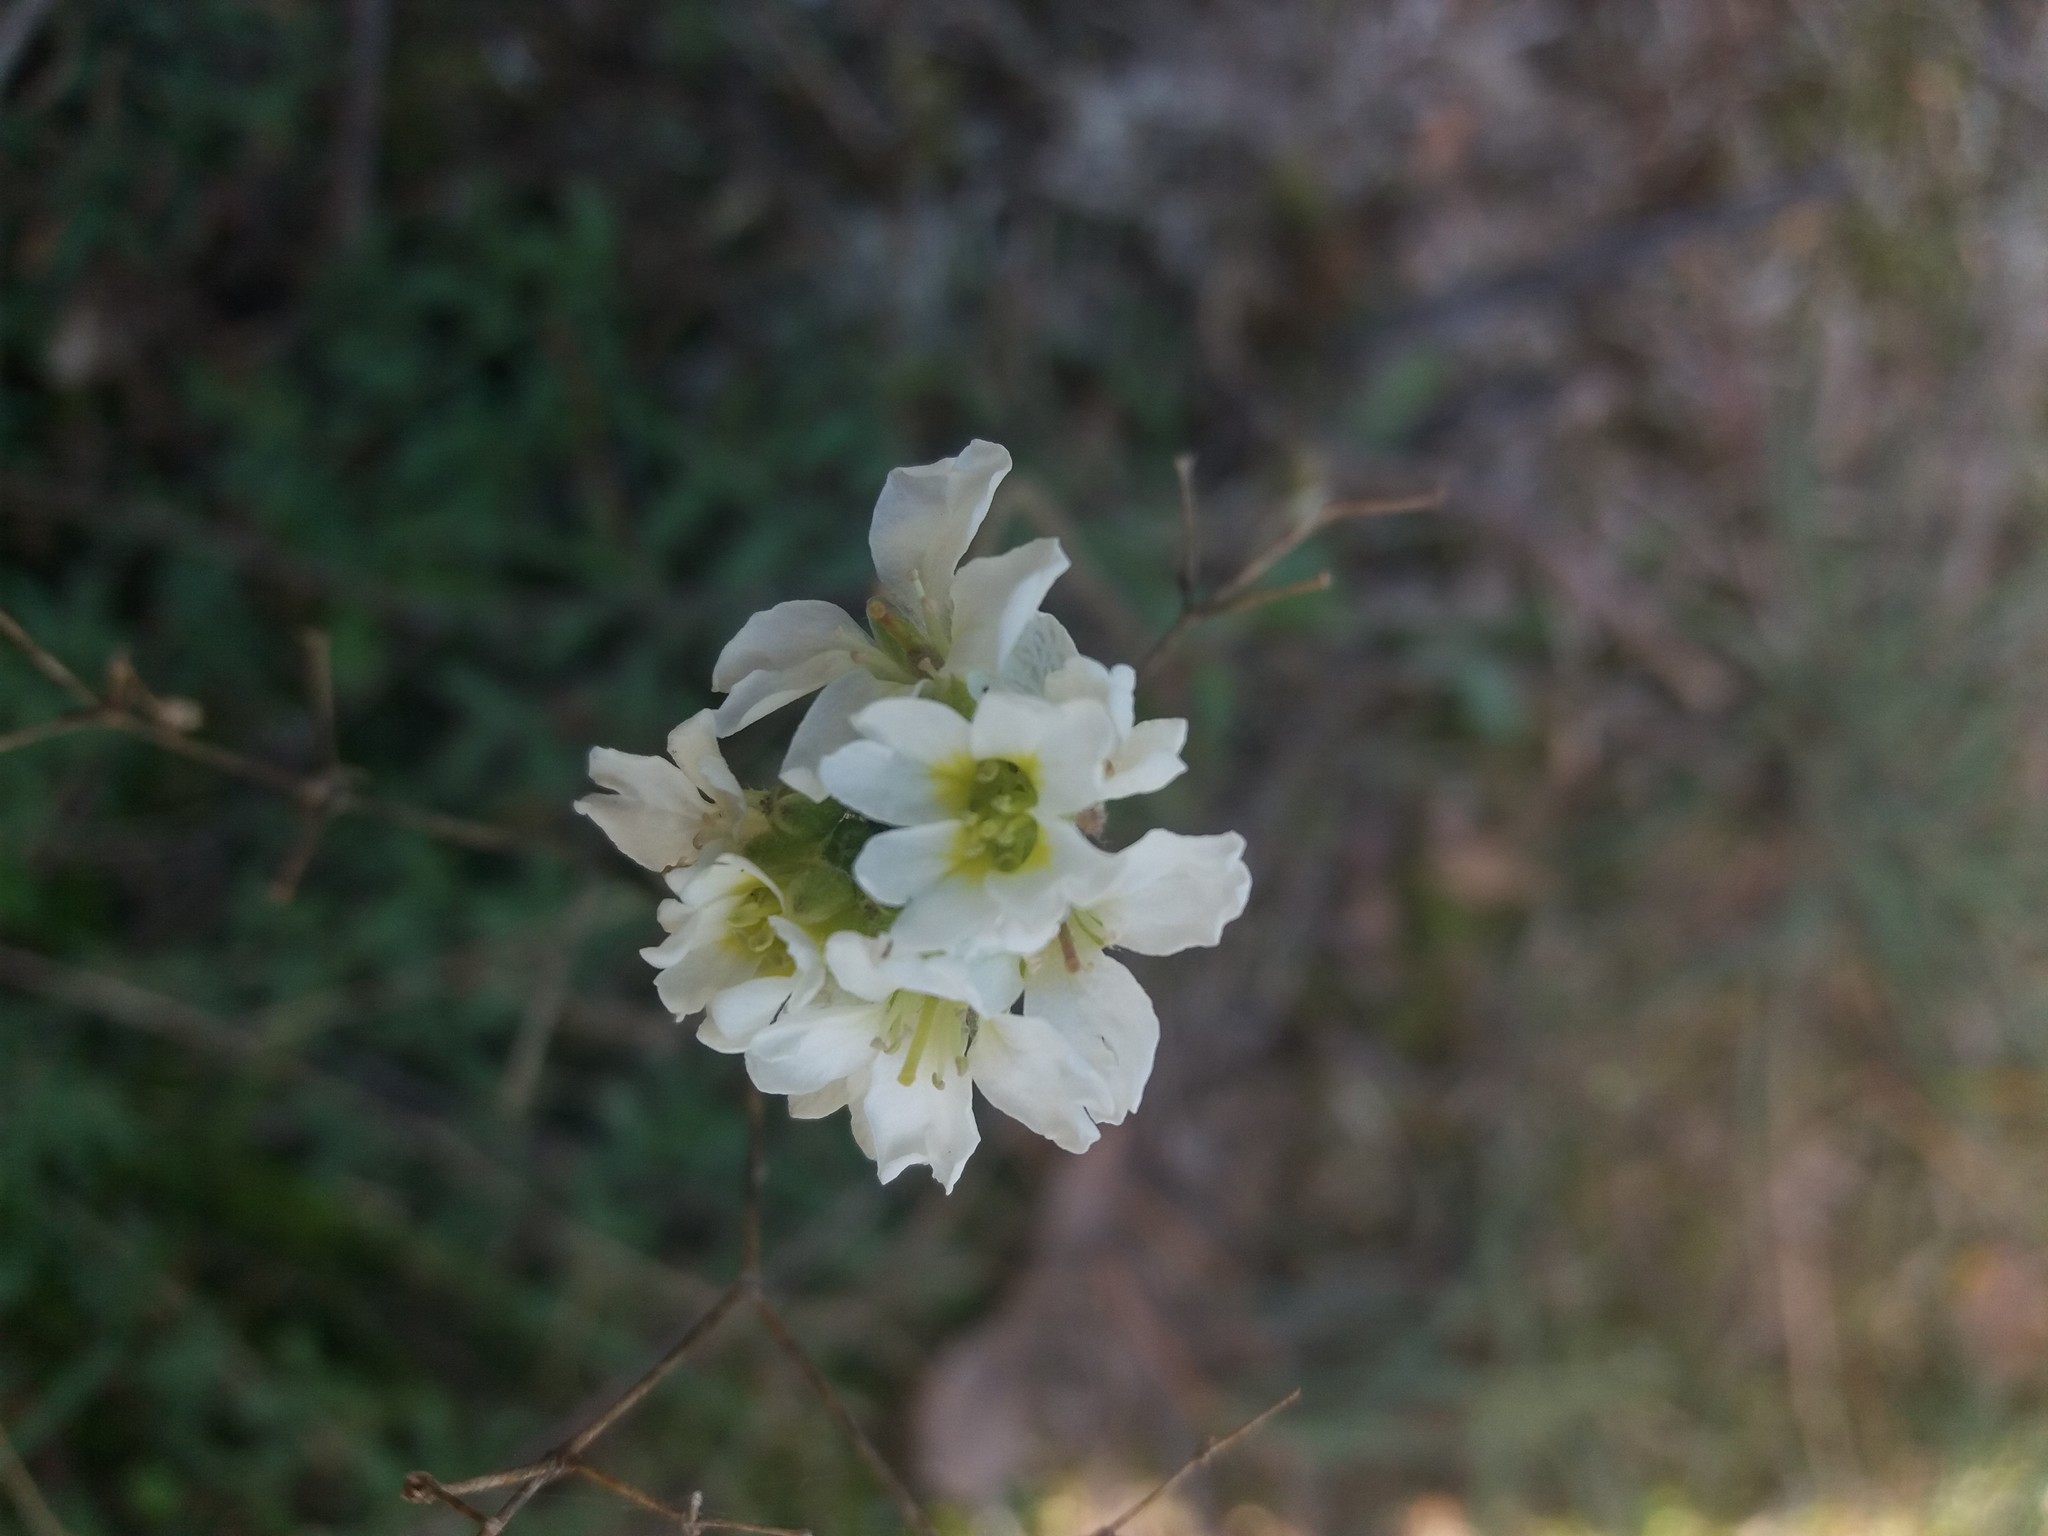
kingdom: Plantae
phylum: Tracheophyta
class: Magnoliopsida
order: Brassicales
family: Brassicaceae
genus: Berteroa
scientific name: Berteroa incana
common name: Hoary alison
